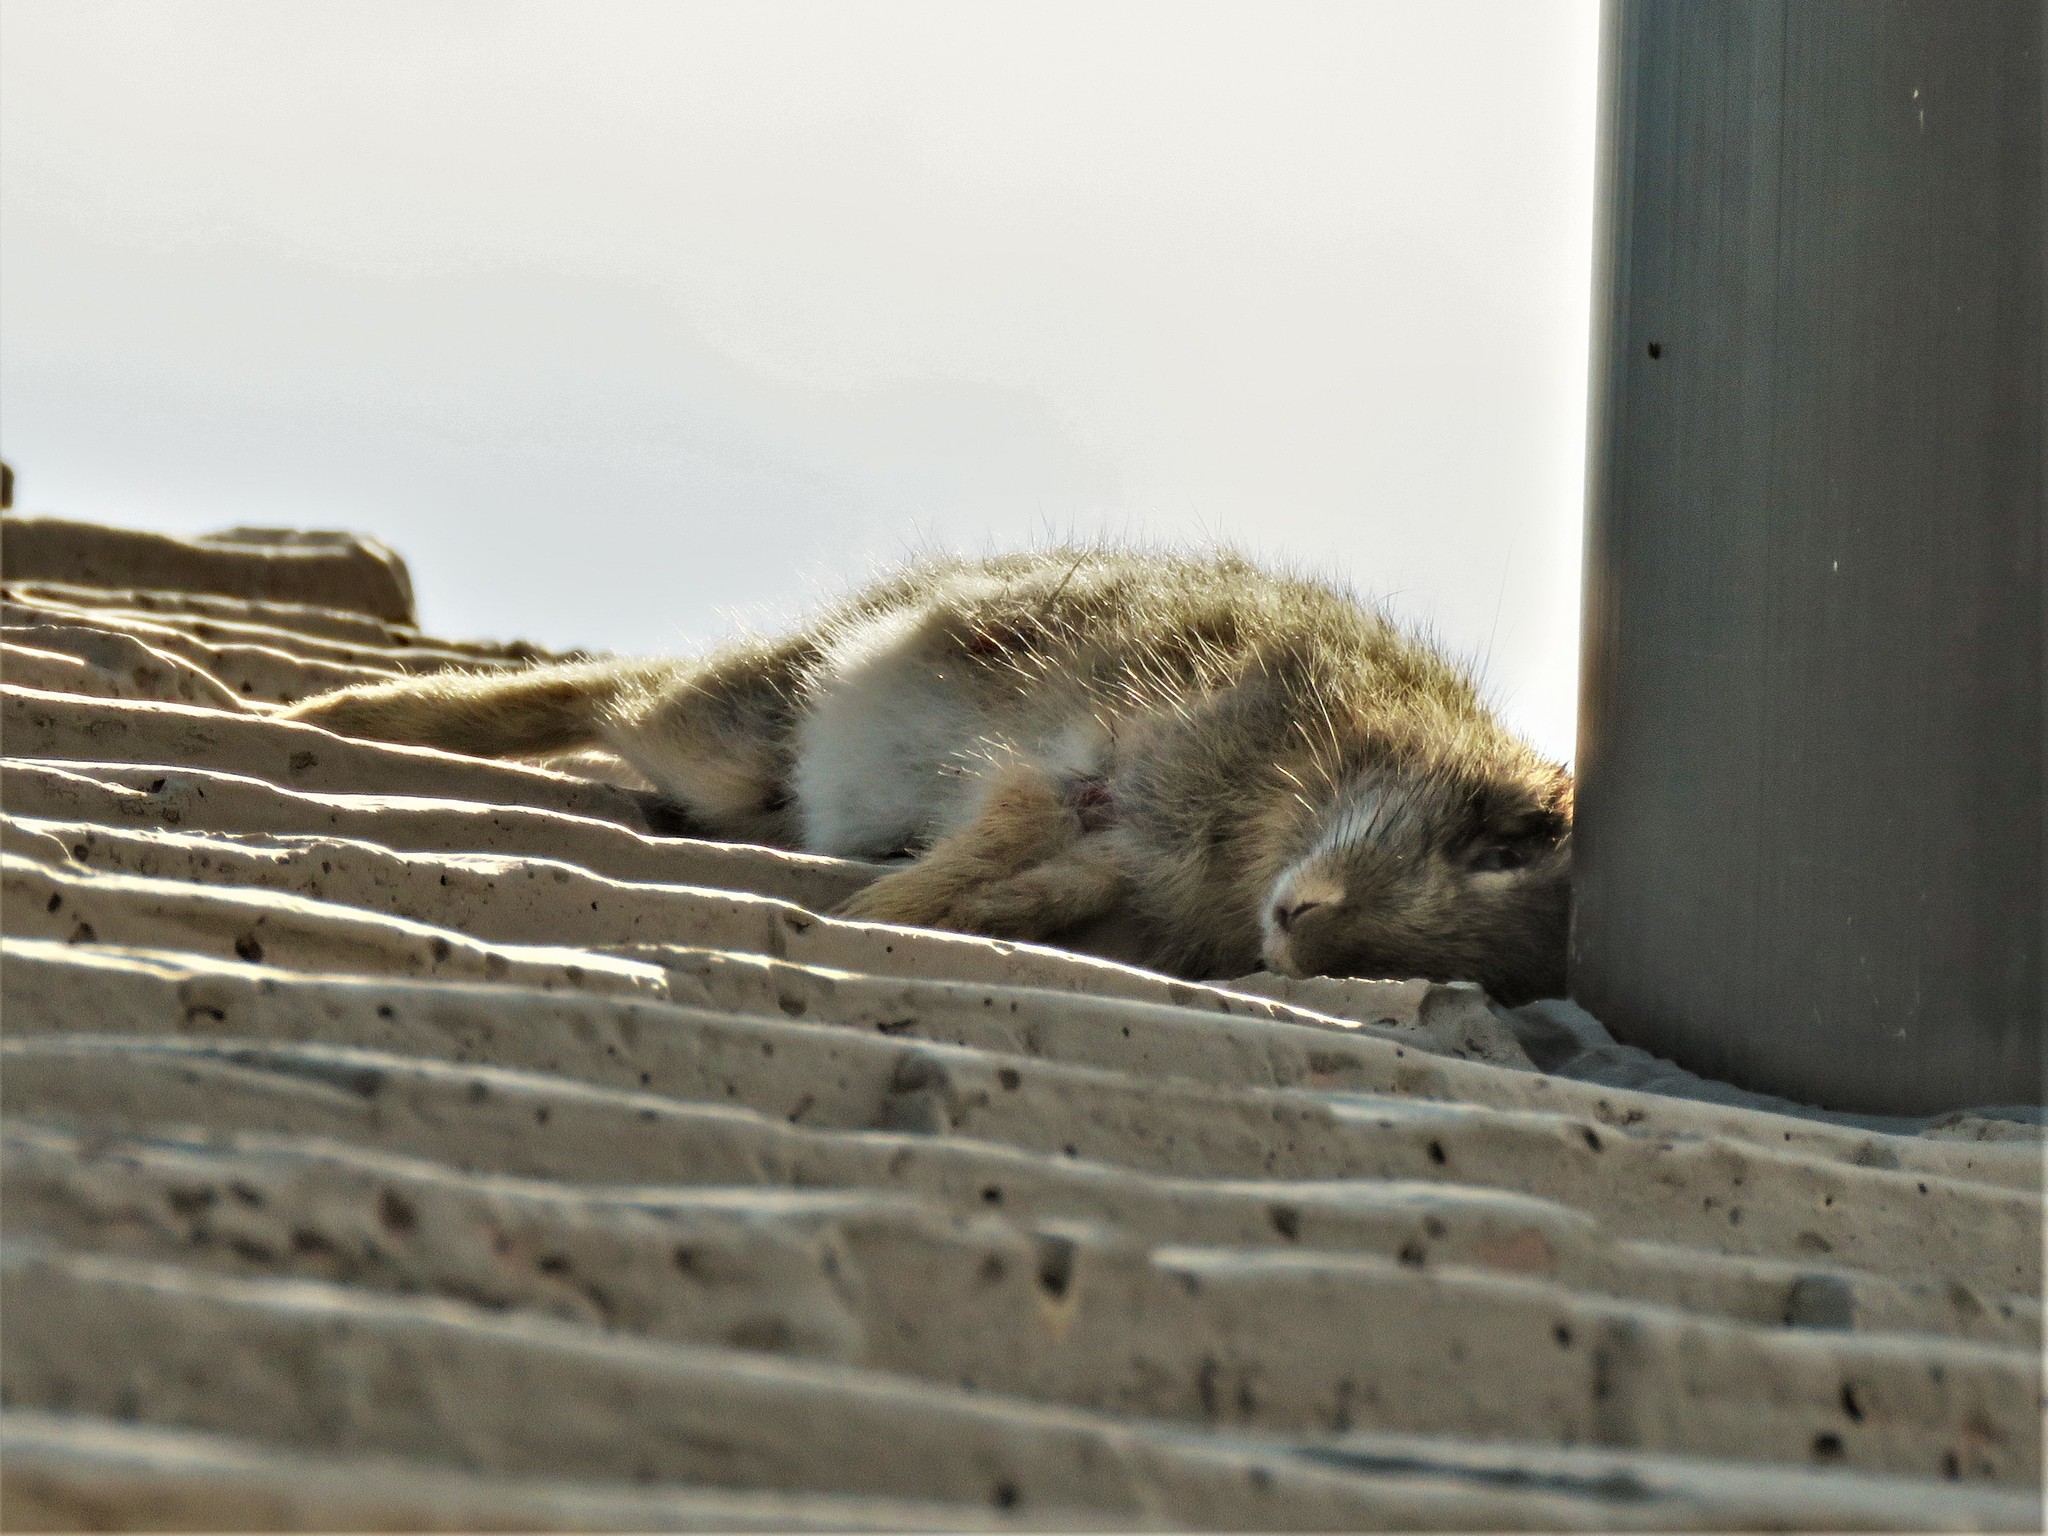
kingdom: Animalia
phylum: Chordata
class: Mammalia
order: Lagomorpha
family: Leporidae
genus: Sylvilagus
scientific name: Sylvilagus floridanus
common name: Eastern cottontail
